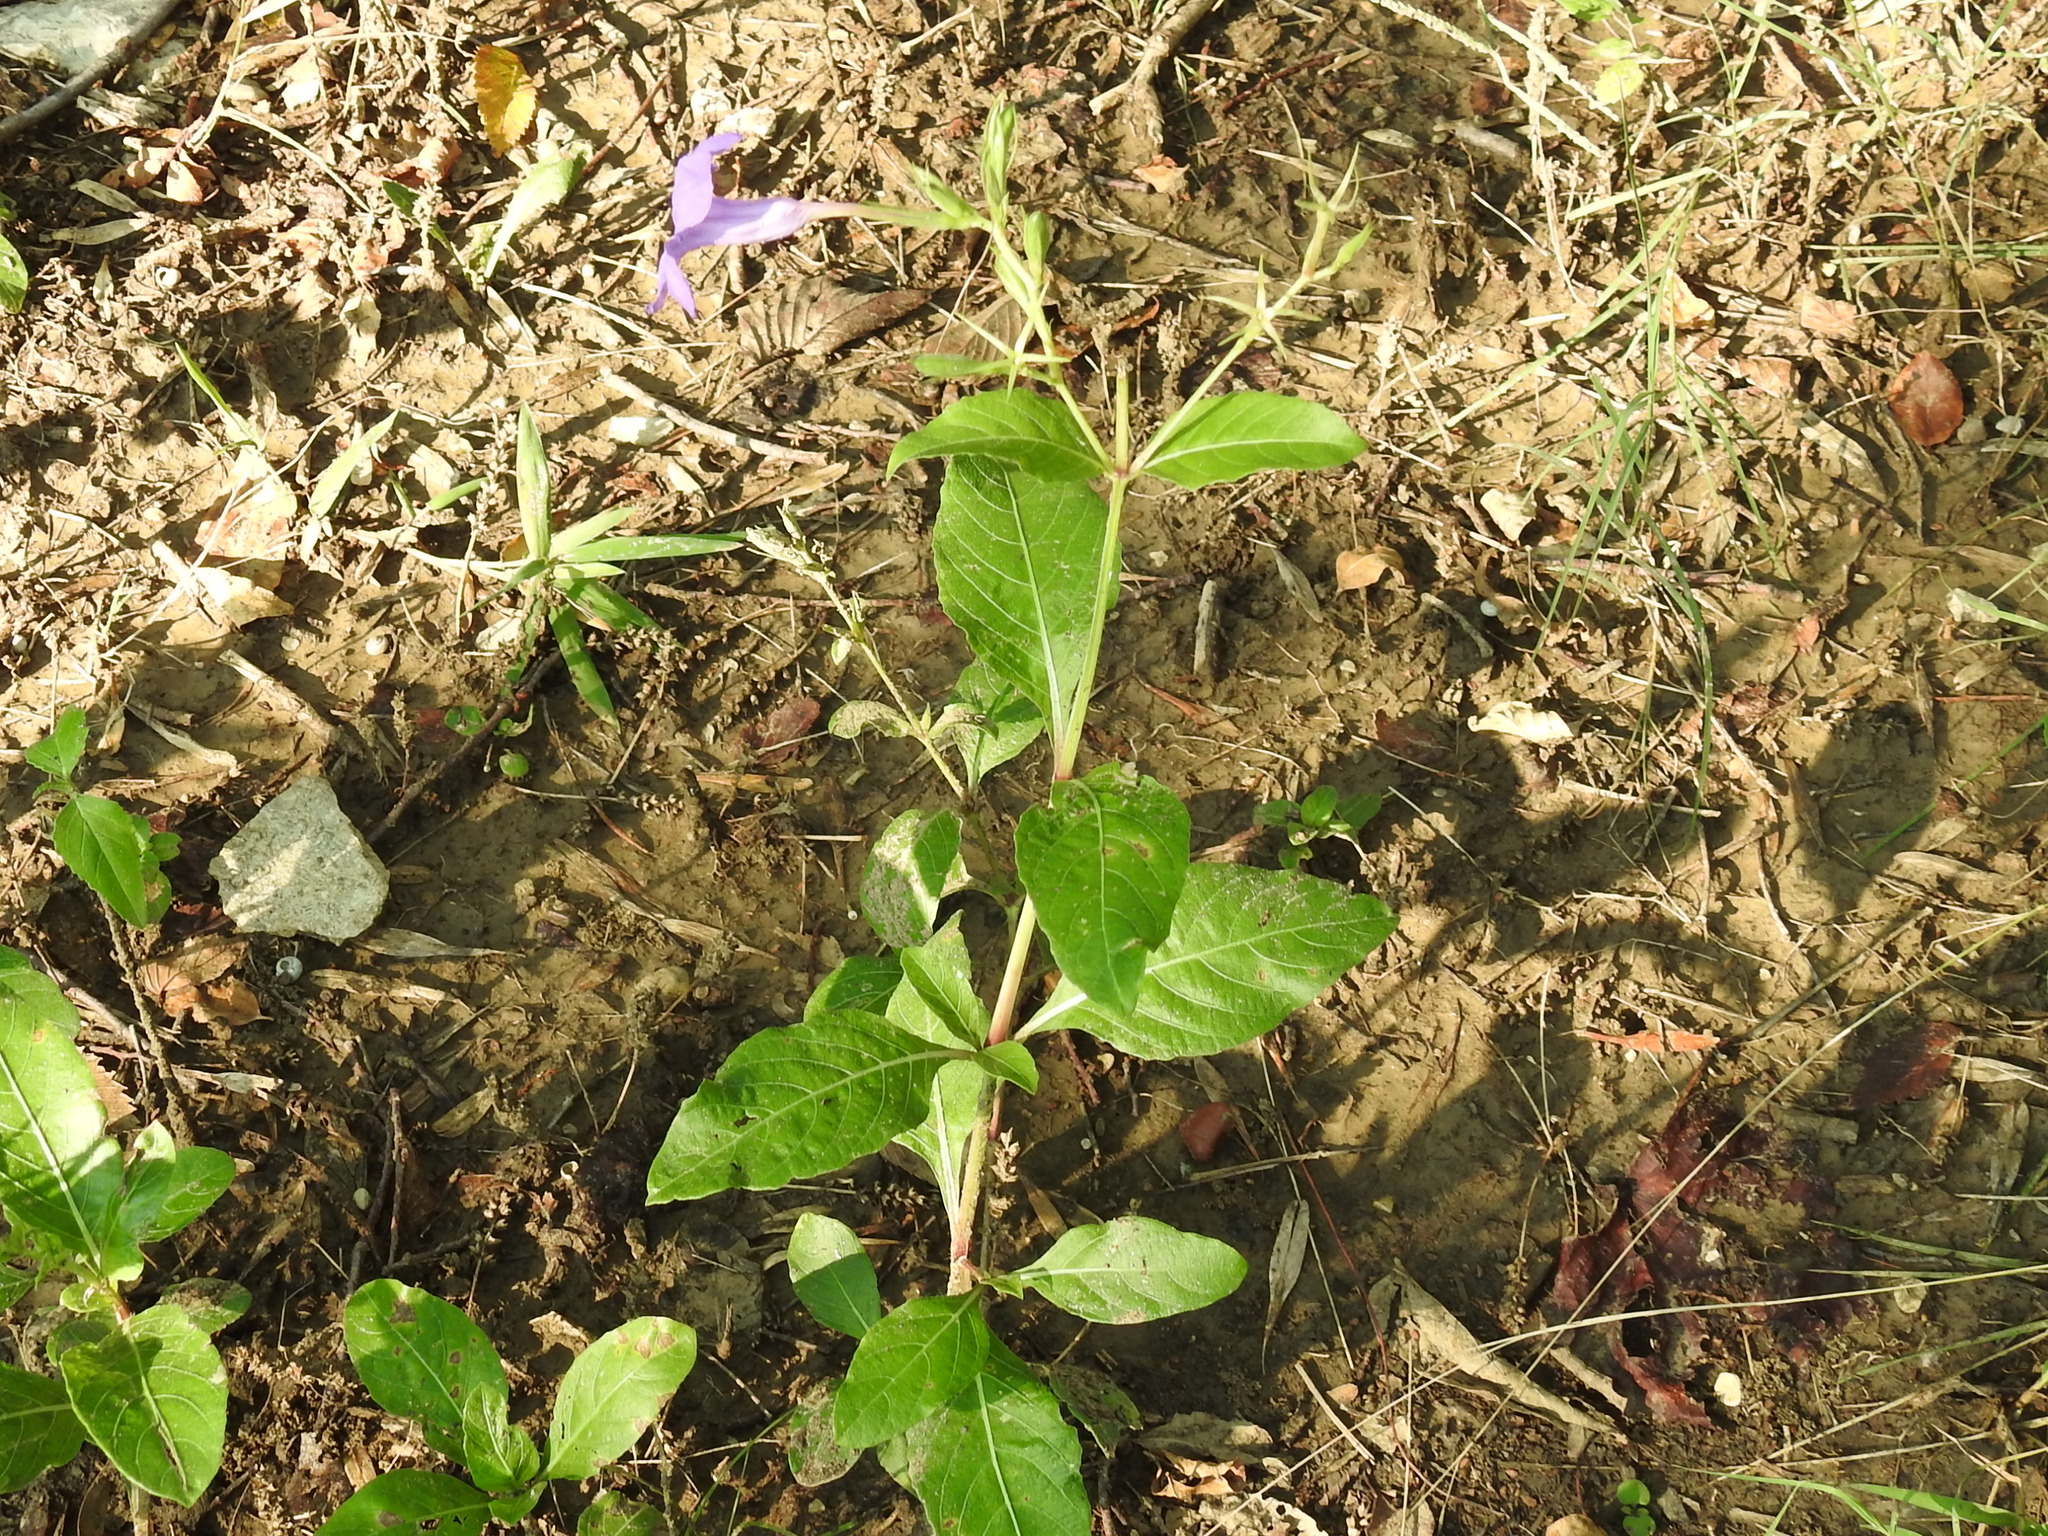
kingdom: Plantae
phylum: Tracheophyta
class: Magnoliopsida
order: Lamiales
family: Acanthaceae
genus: Ruellia
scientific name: Ruellia ciliatiflora
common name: Hairyflower wild petunia
